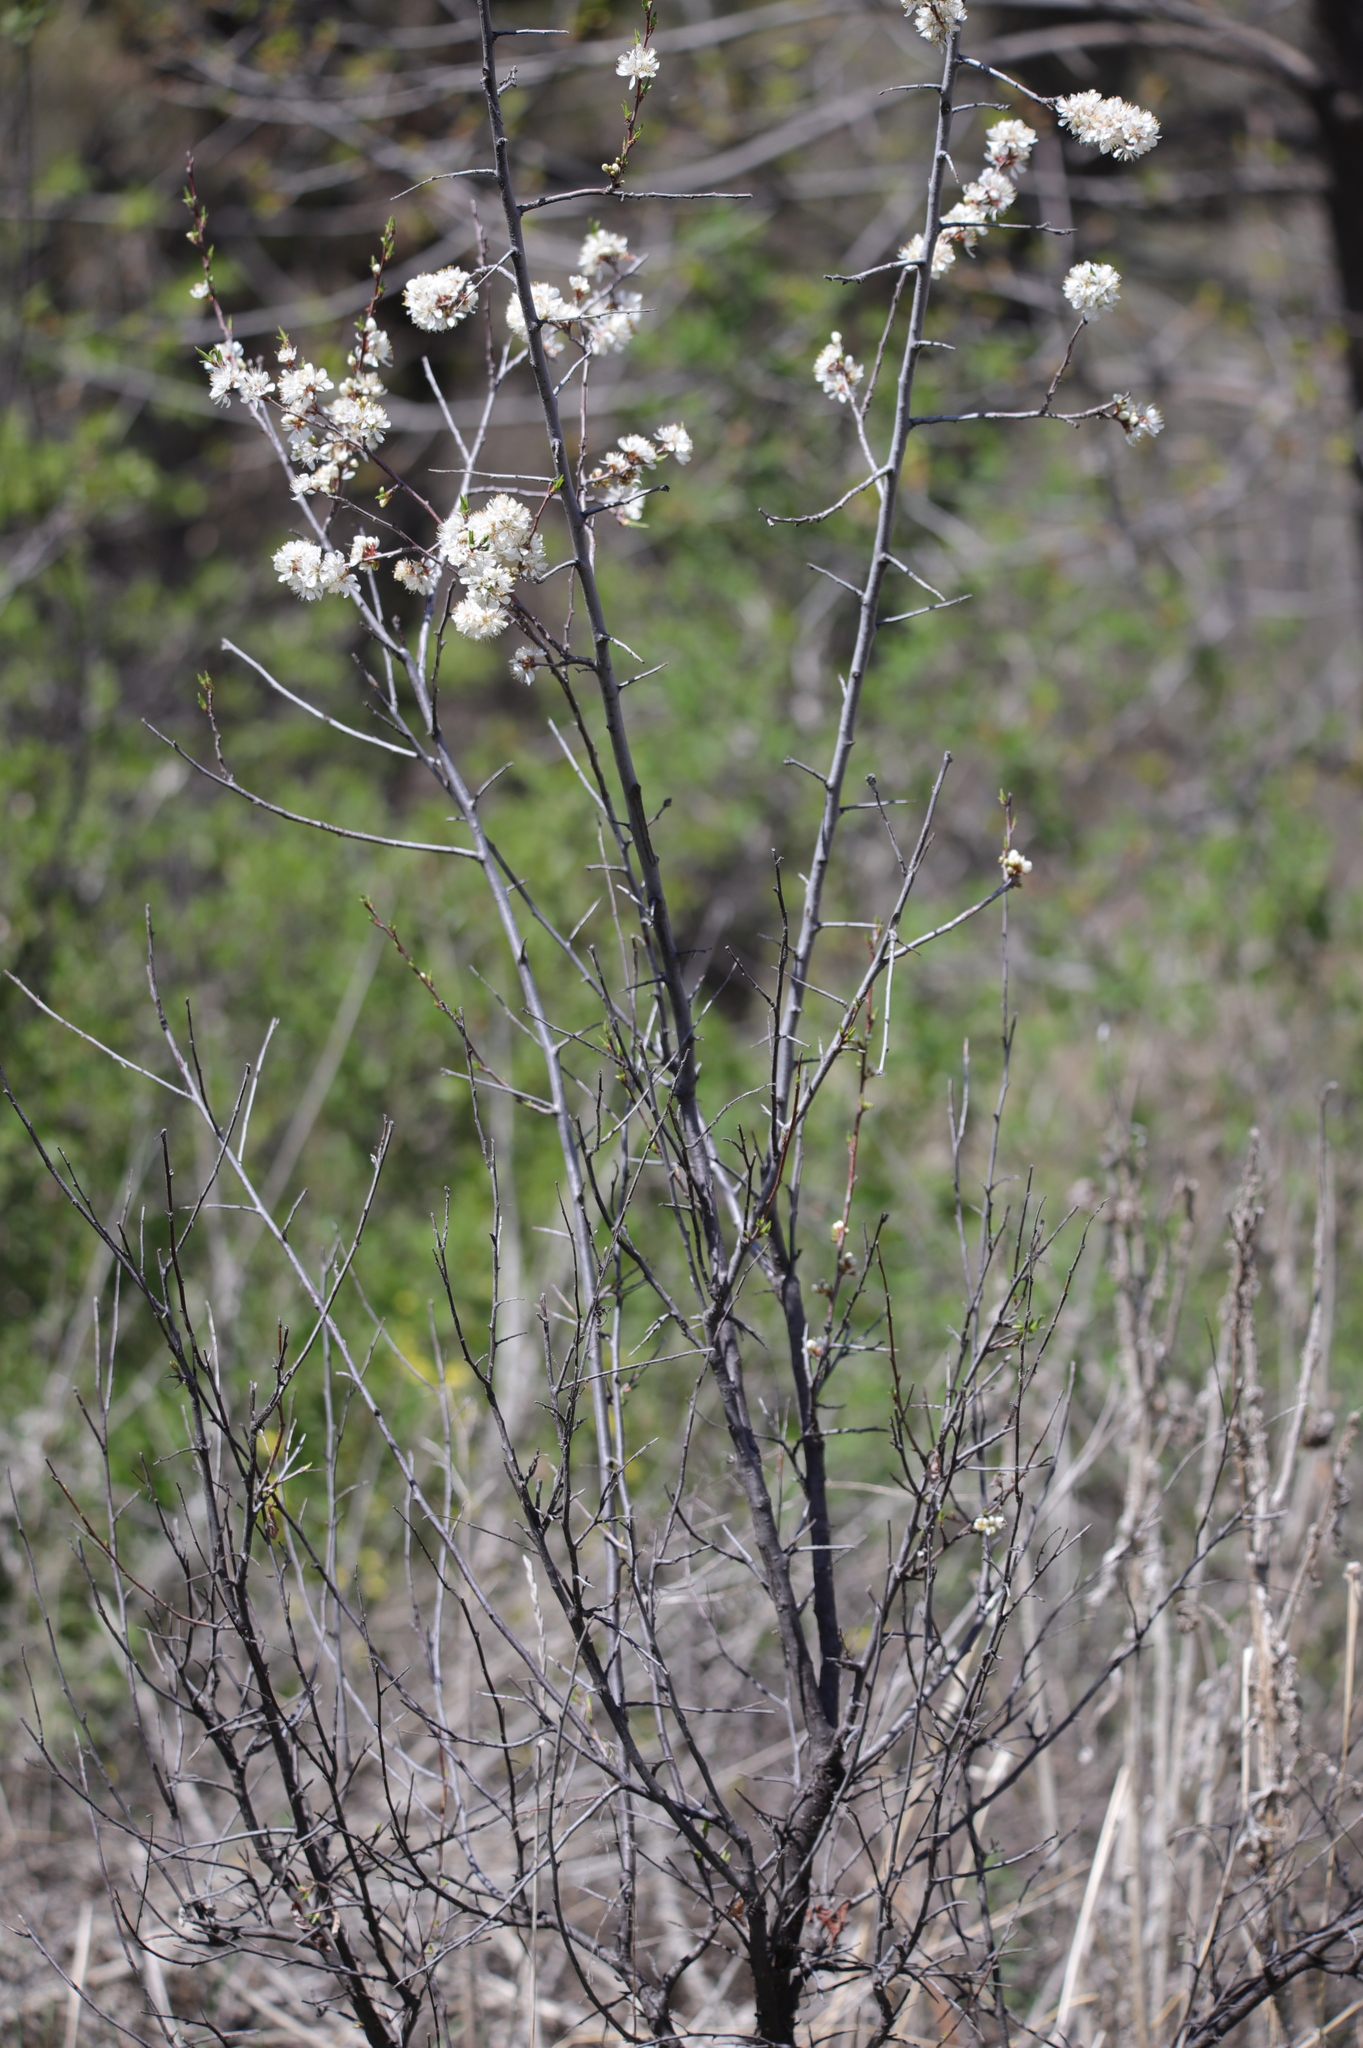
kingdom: Plantae
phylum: Tracheophyta
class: Magnoliopsida
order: Rosales
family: Rosaceae
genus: Prunus
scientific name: Prunus americana
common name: American plum
